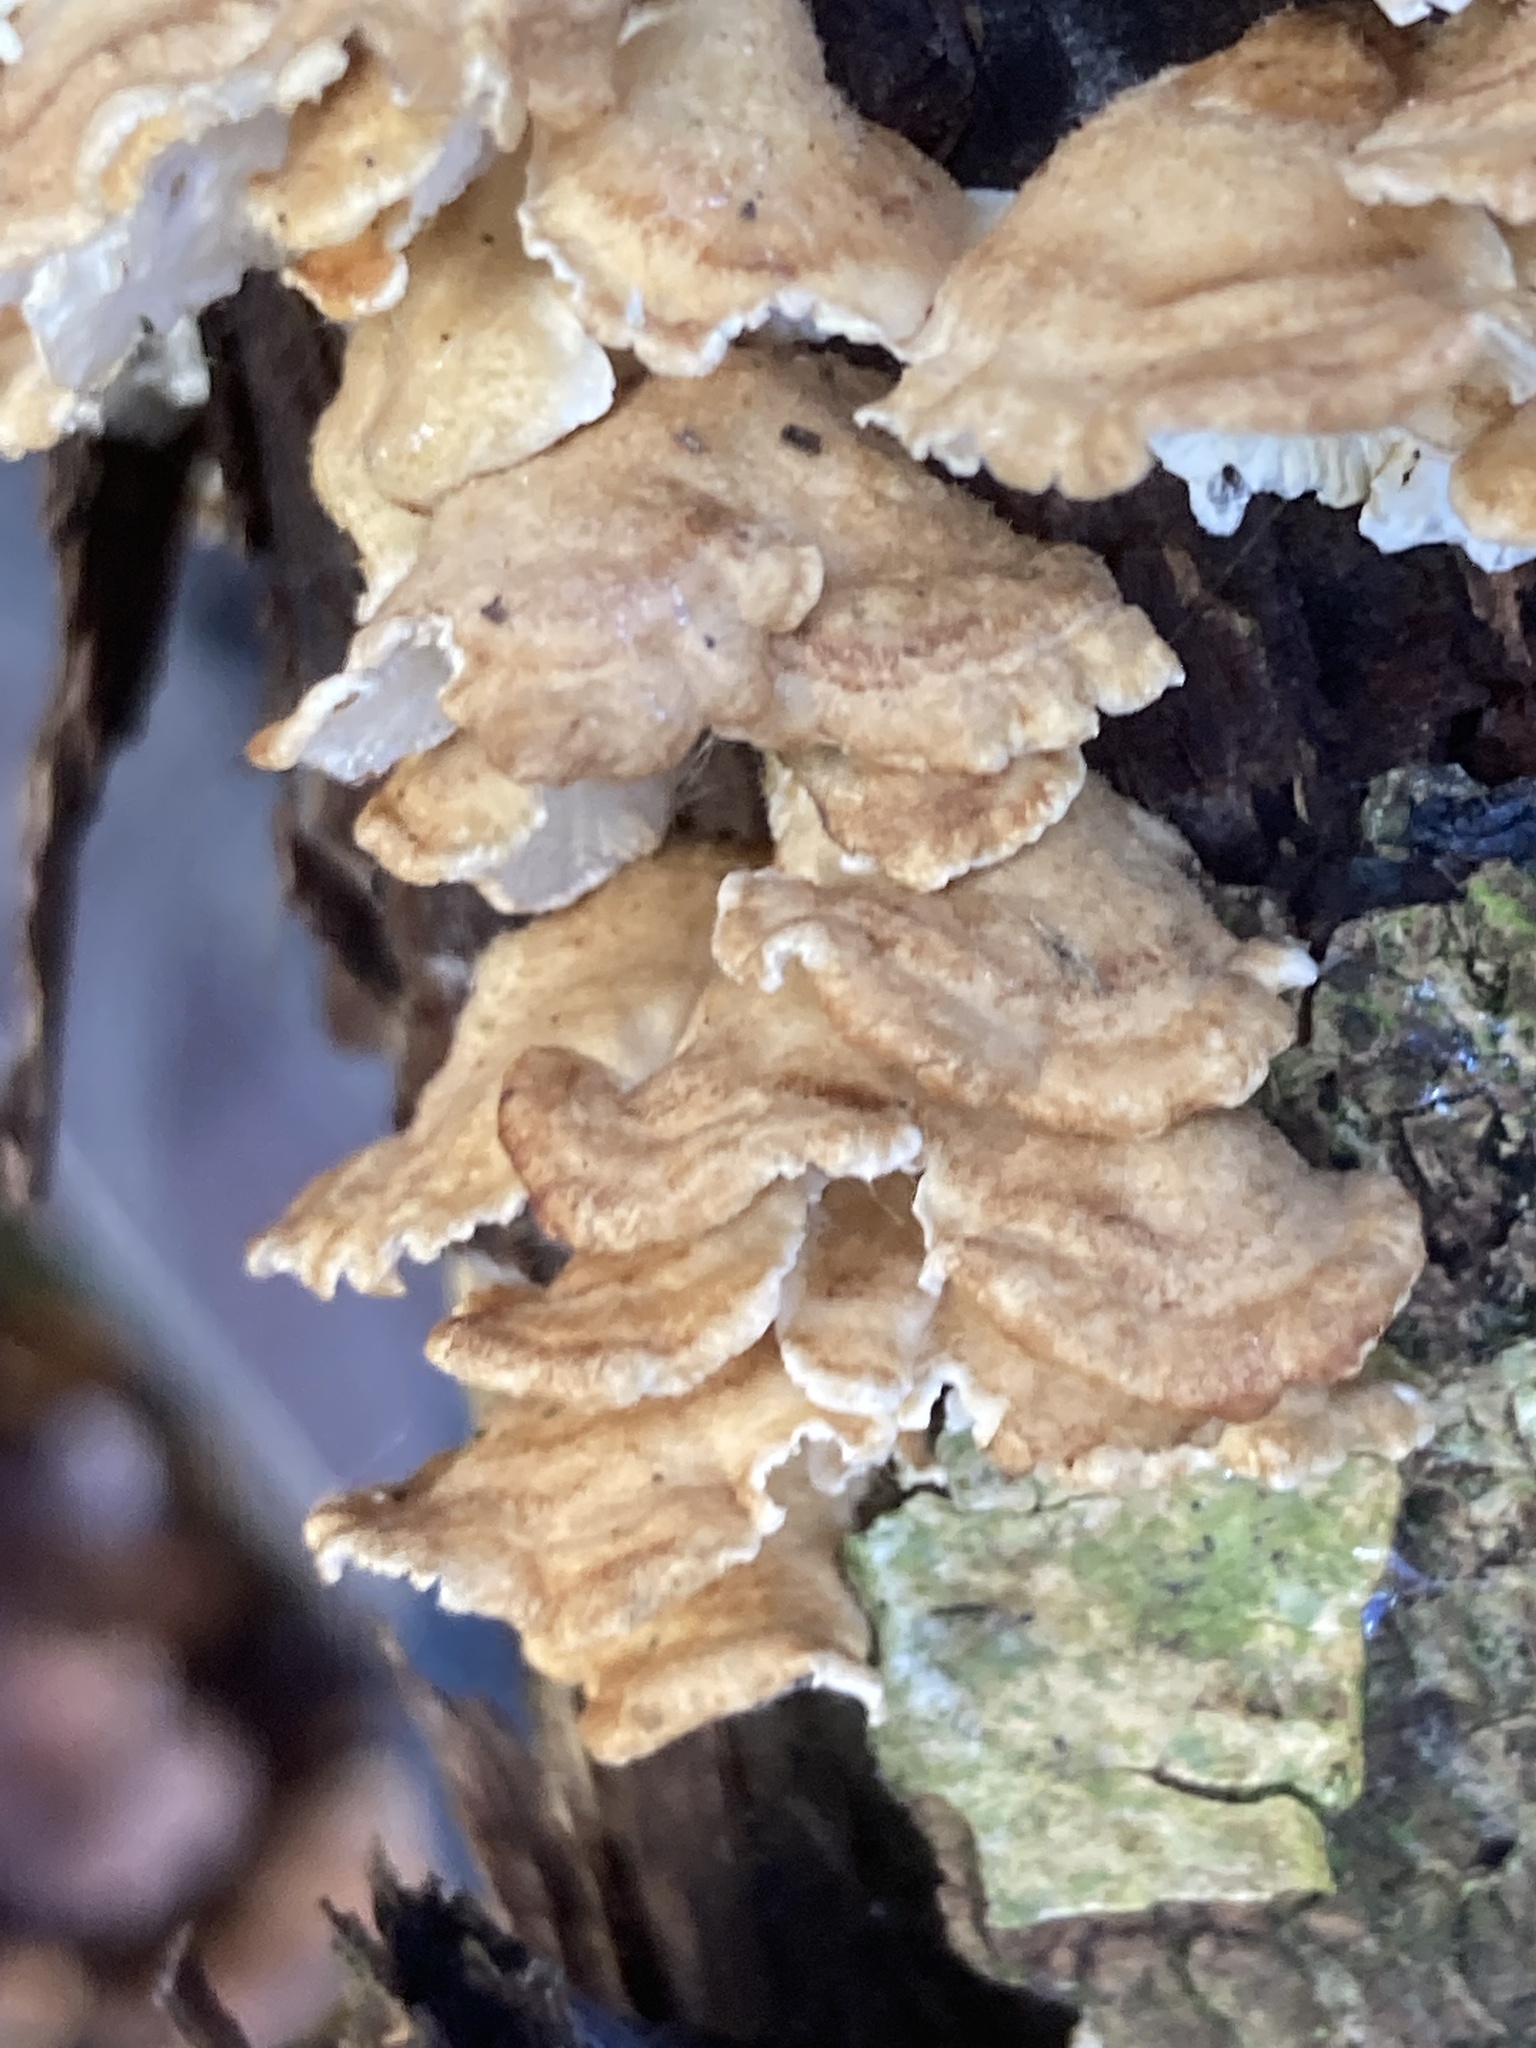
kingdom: Fungi
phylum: Basidiomycota
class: Agaricomycetes
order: Amylocorticiales
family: Amylocorticiaceae
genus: Plicaturopsis
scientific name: Plicaturopsis crispa
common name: Crimped gill
